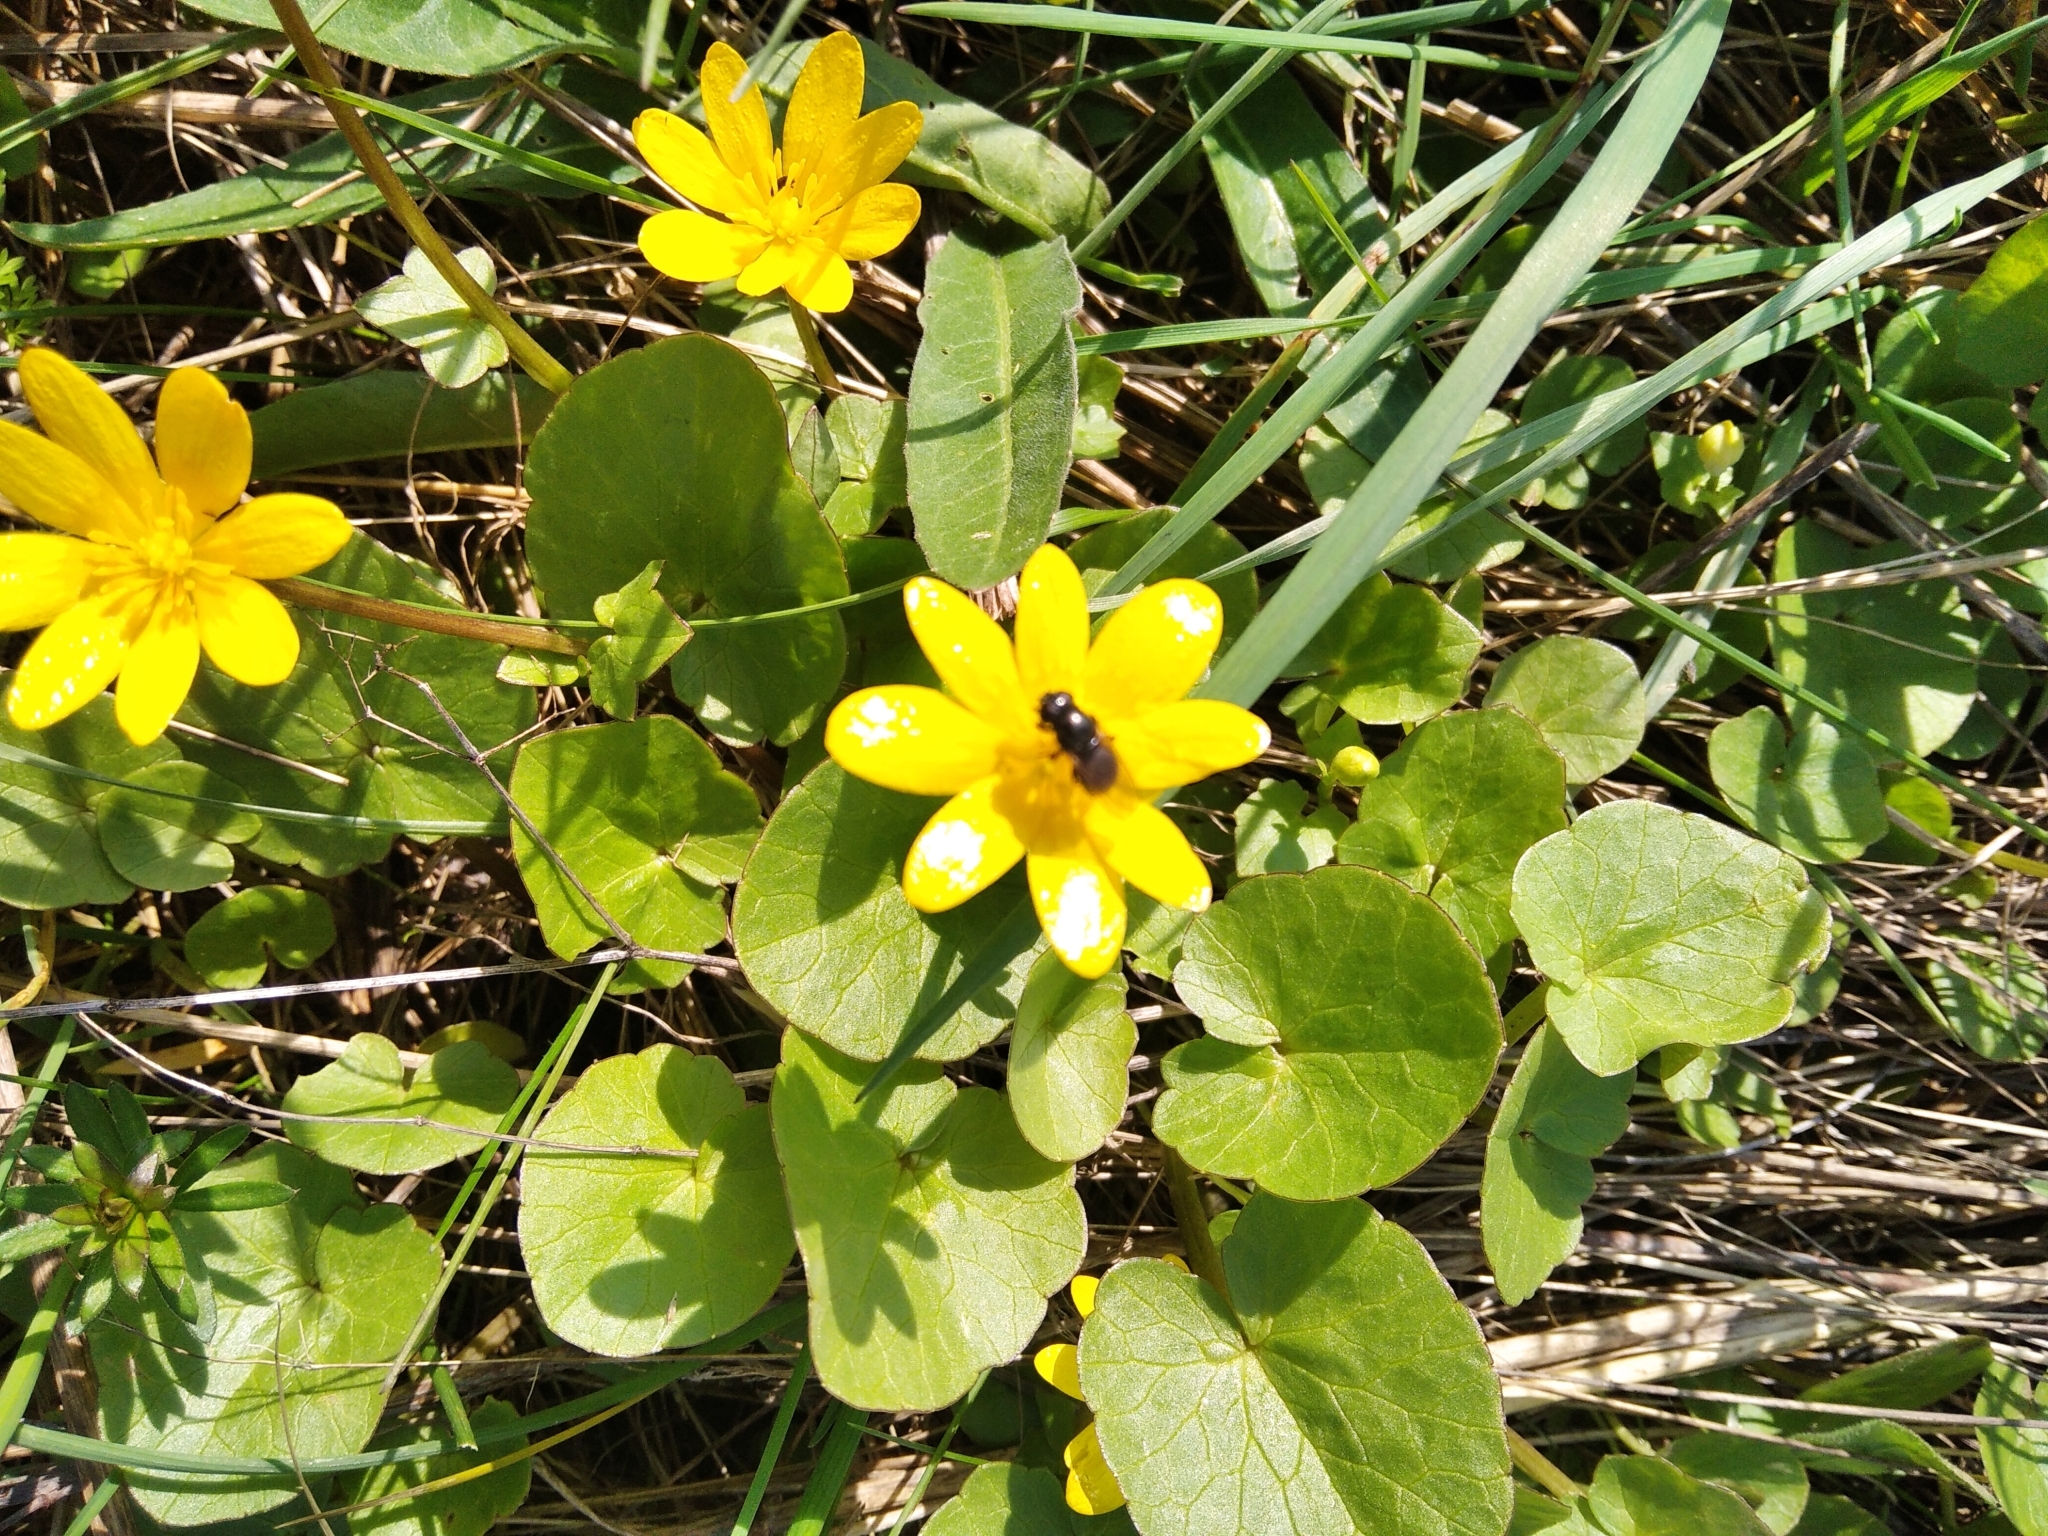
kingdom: Plantae
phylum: Tracheophyta
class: Magnoliopsida
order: Ranunculales
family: Ranunculaceae
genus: Ficaria
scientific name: Ficaria verna
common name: Lesser celandine
